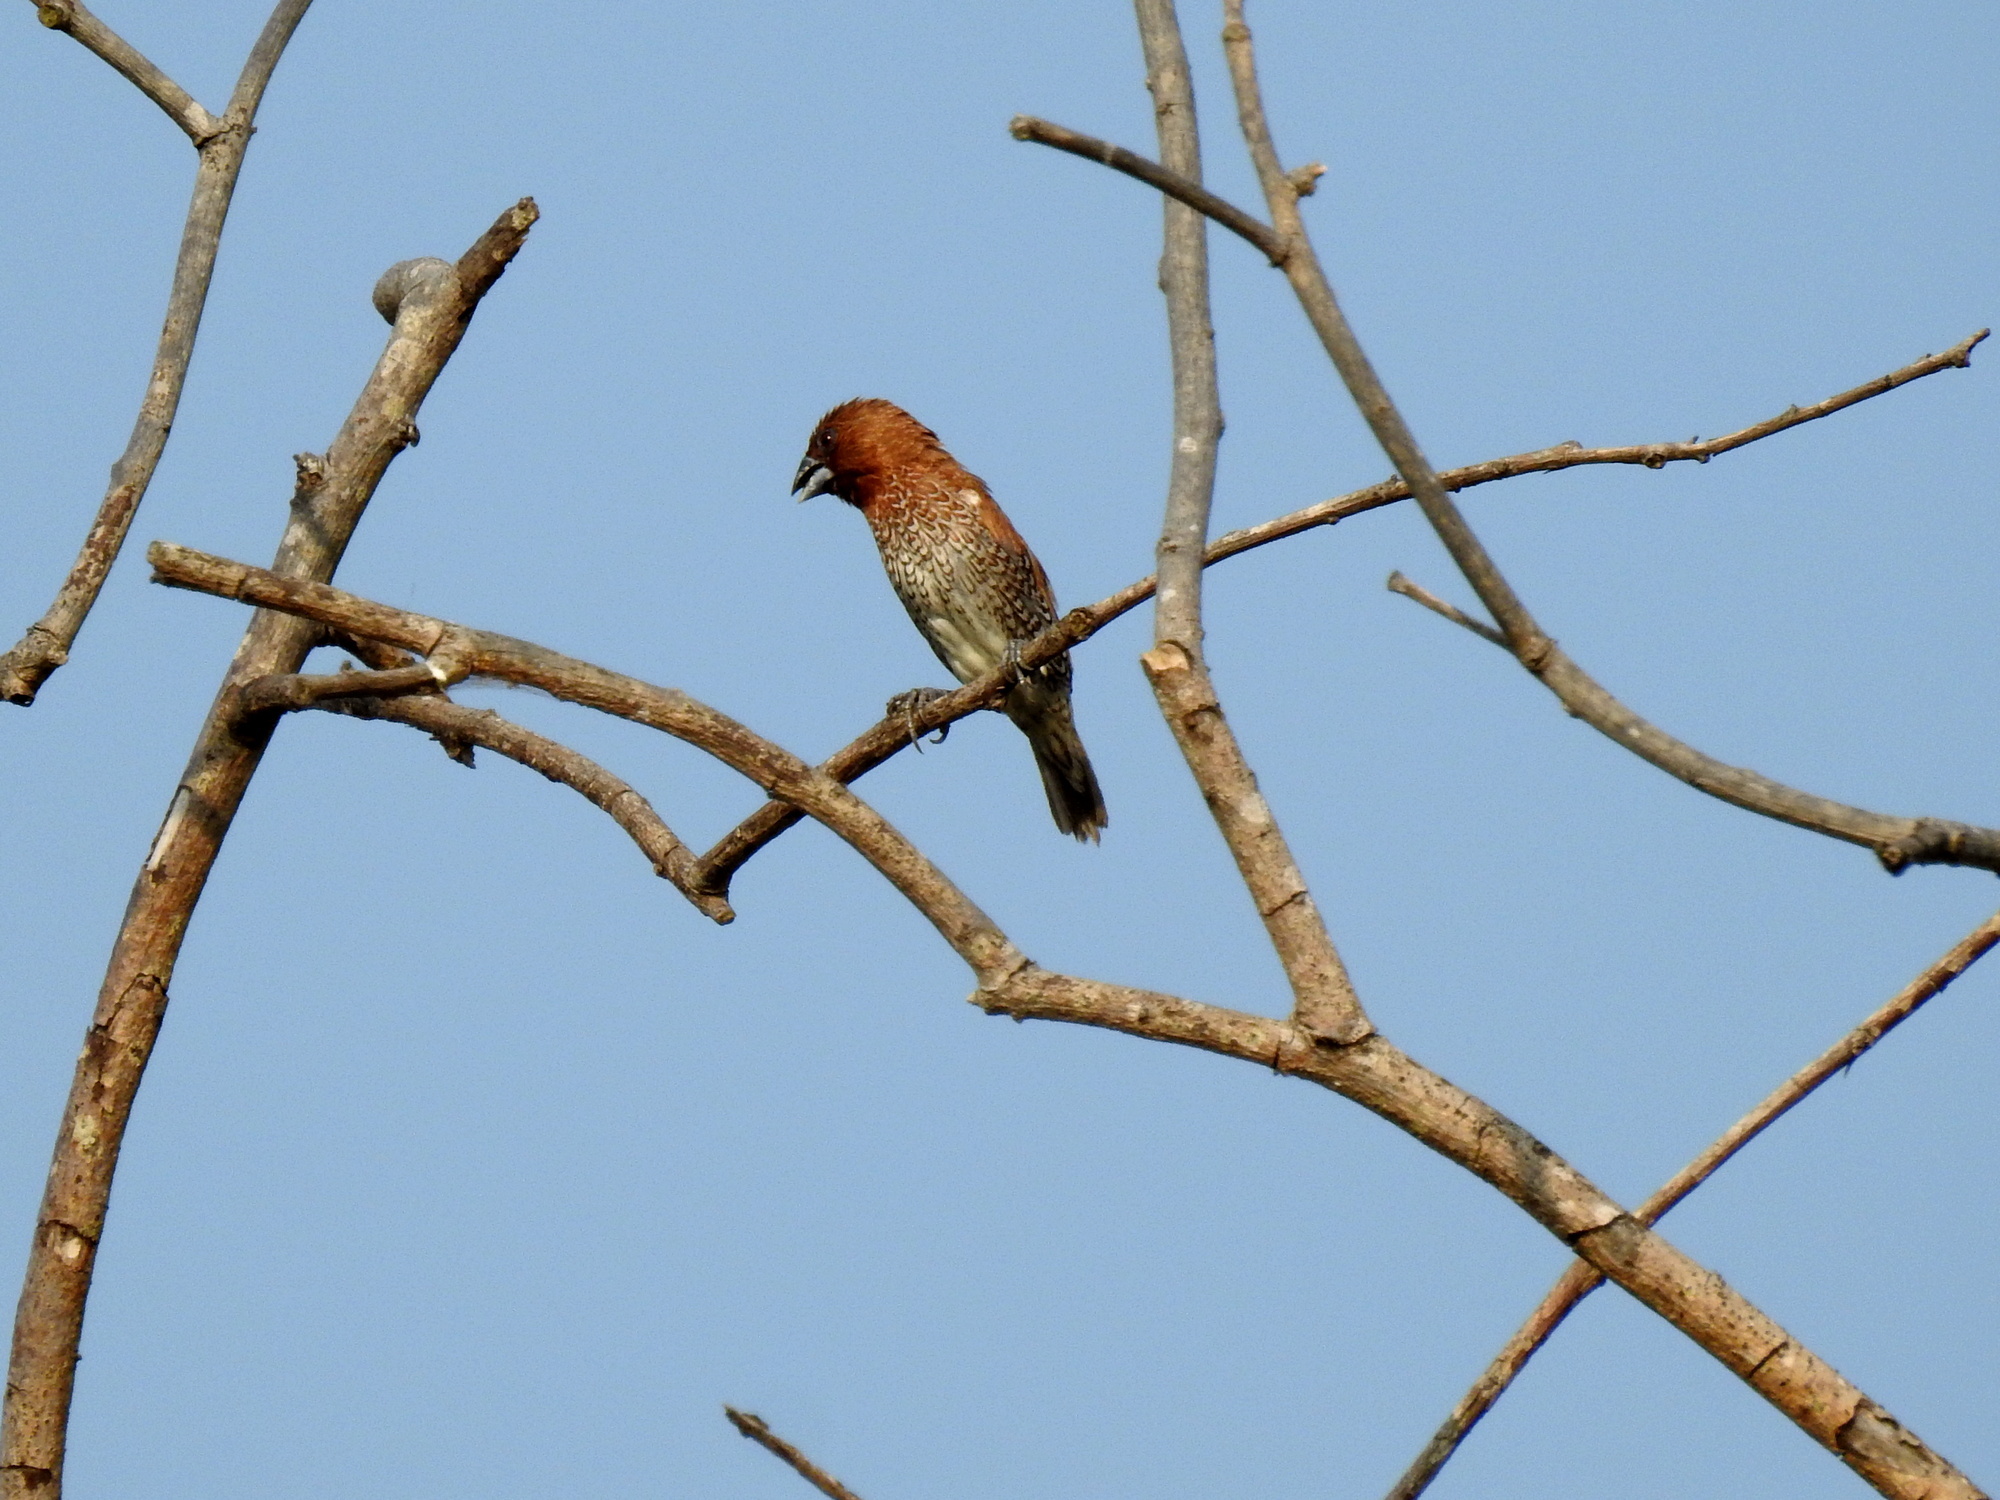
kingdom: Animalia
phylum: Chordata
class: Aves
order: Passeriformes
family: Estrildidae
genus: Lonchura
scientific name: Lonchura punctulata
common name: Scaly-breasted munia
